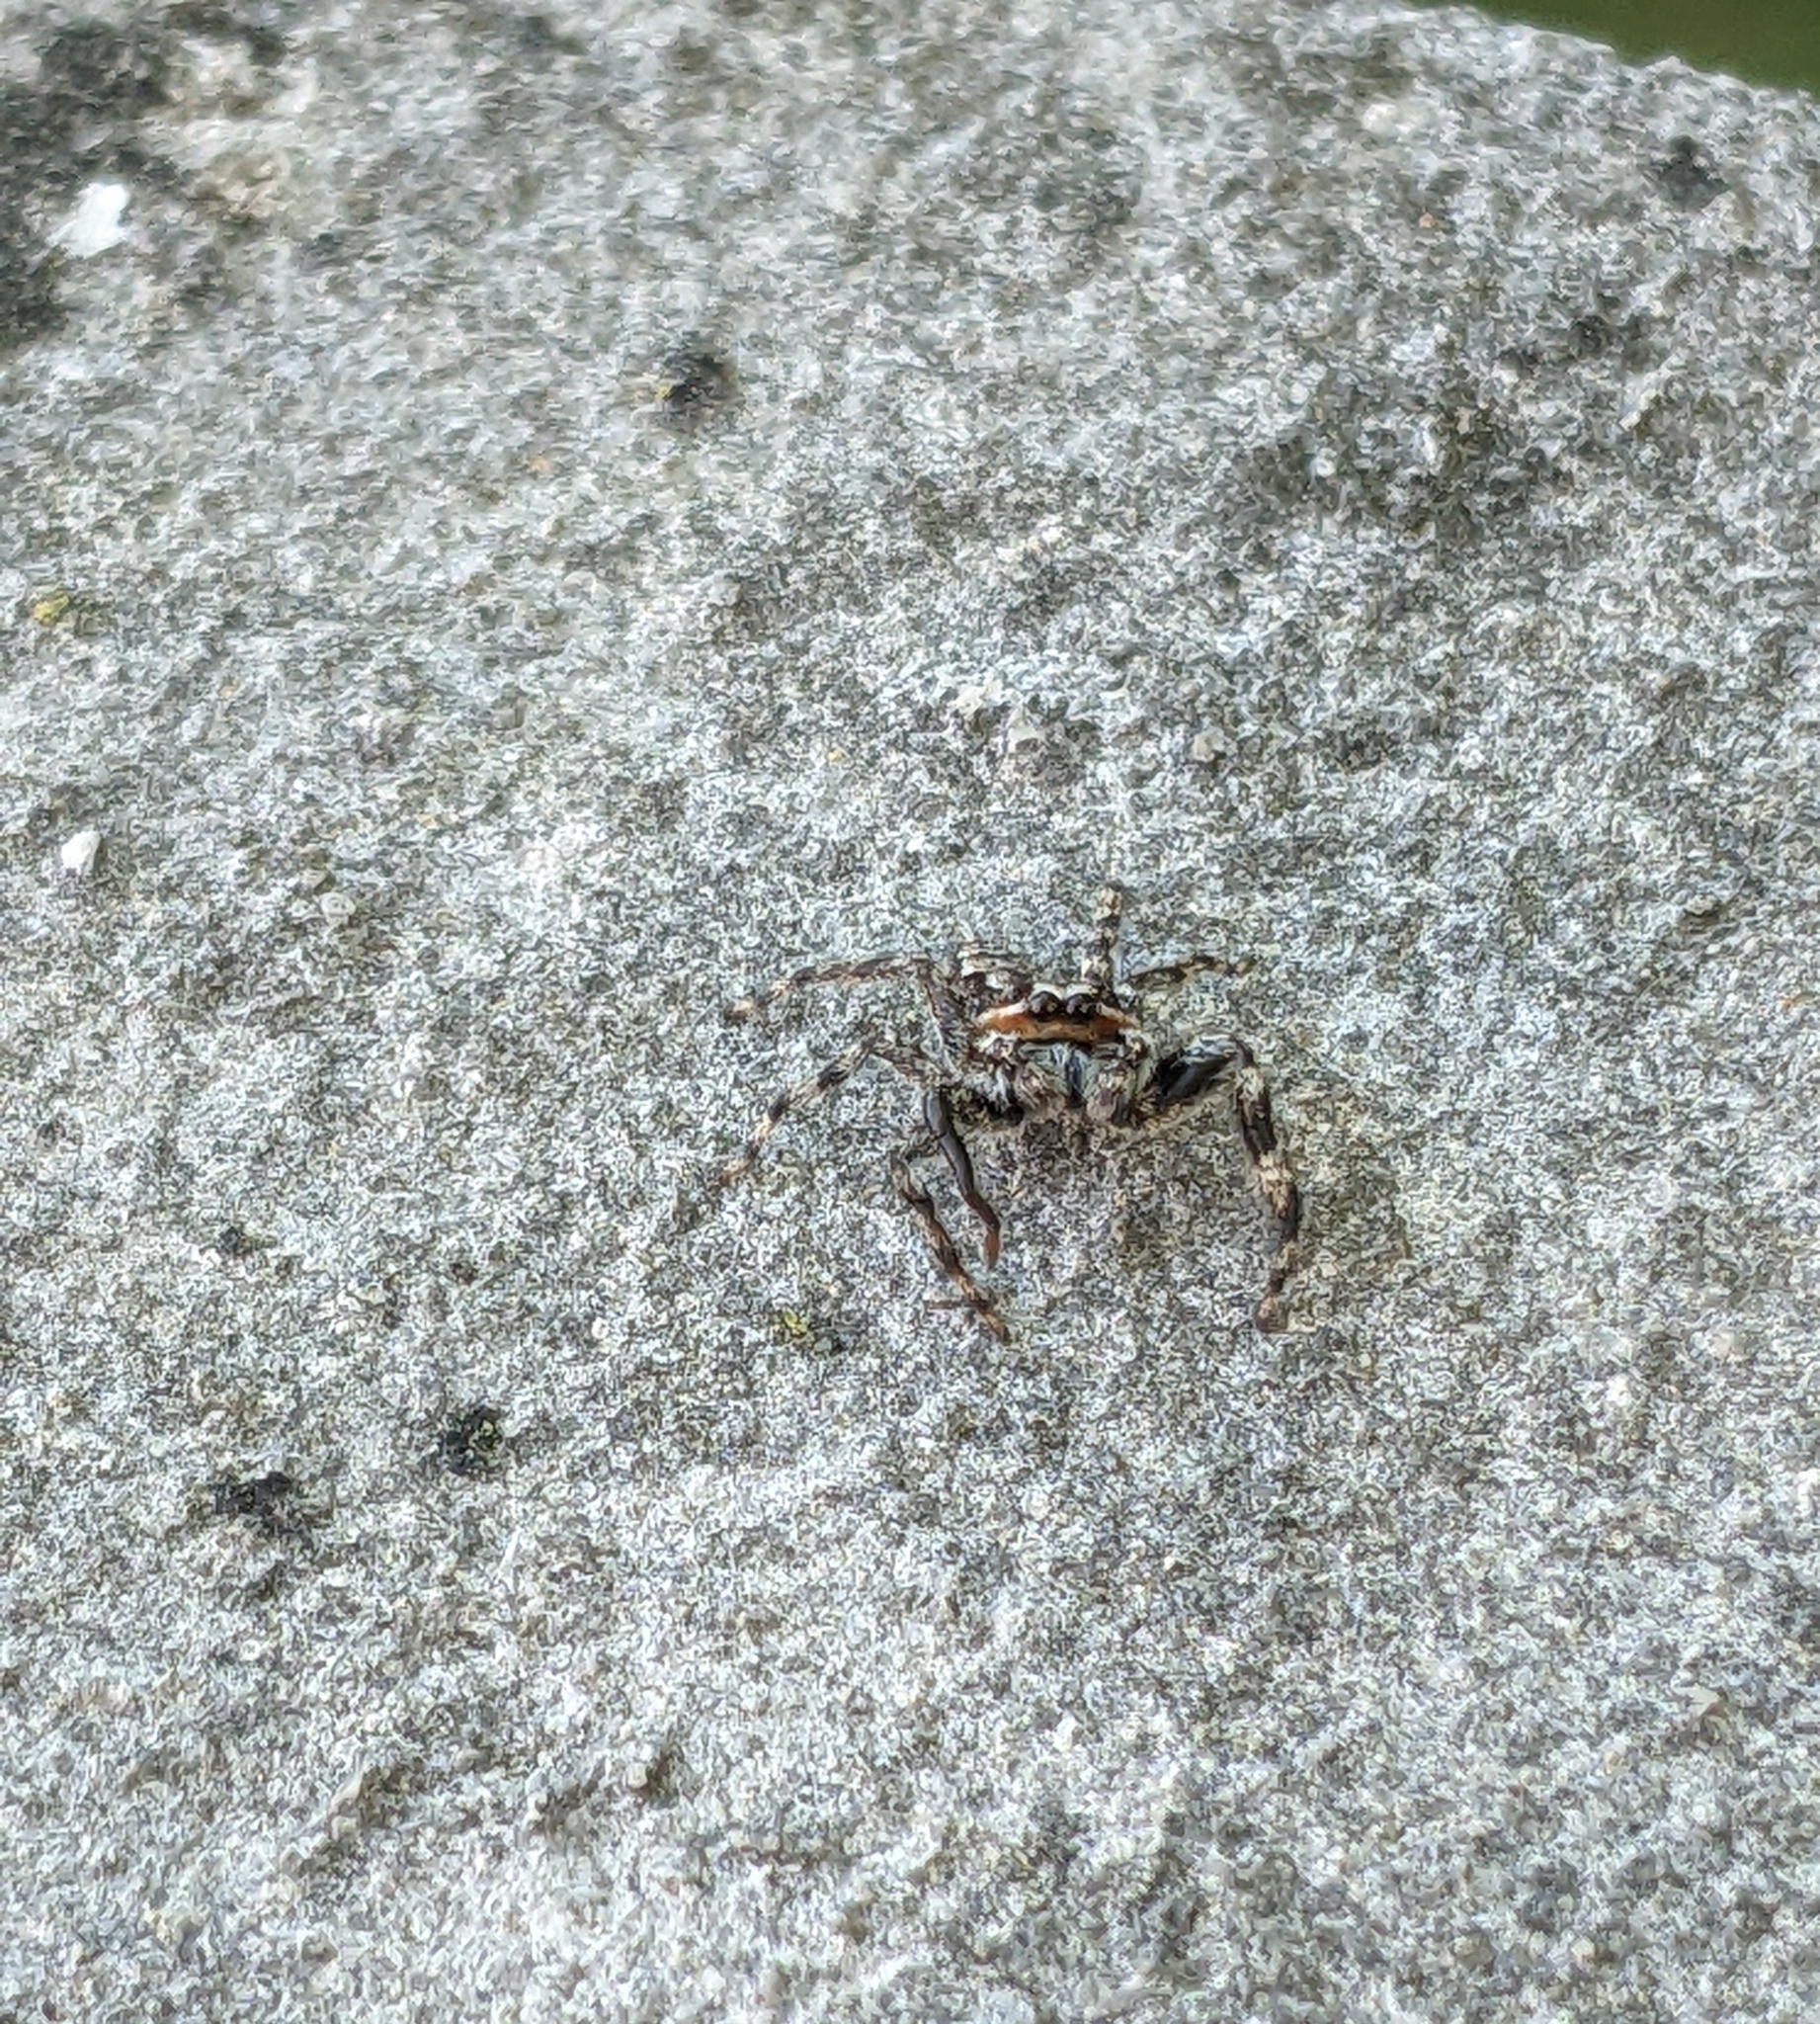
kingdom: Animalia
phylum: Arthropoda
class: Arachnida
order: Araneae
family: Salticidae
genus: Platycryptus
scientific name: Platycryptus undatus
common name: Tan jumping spider
